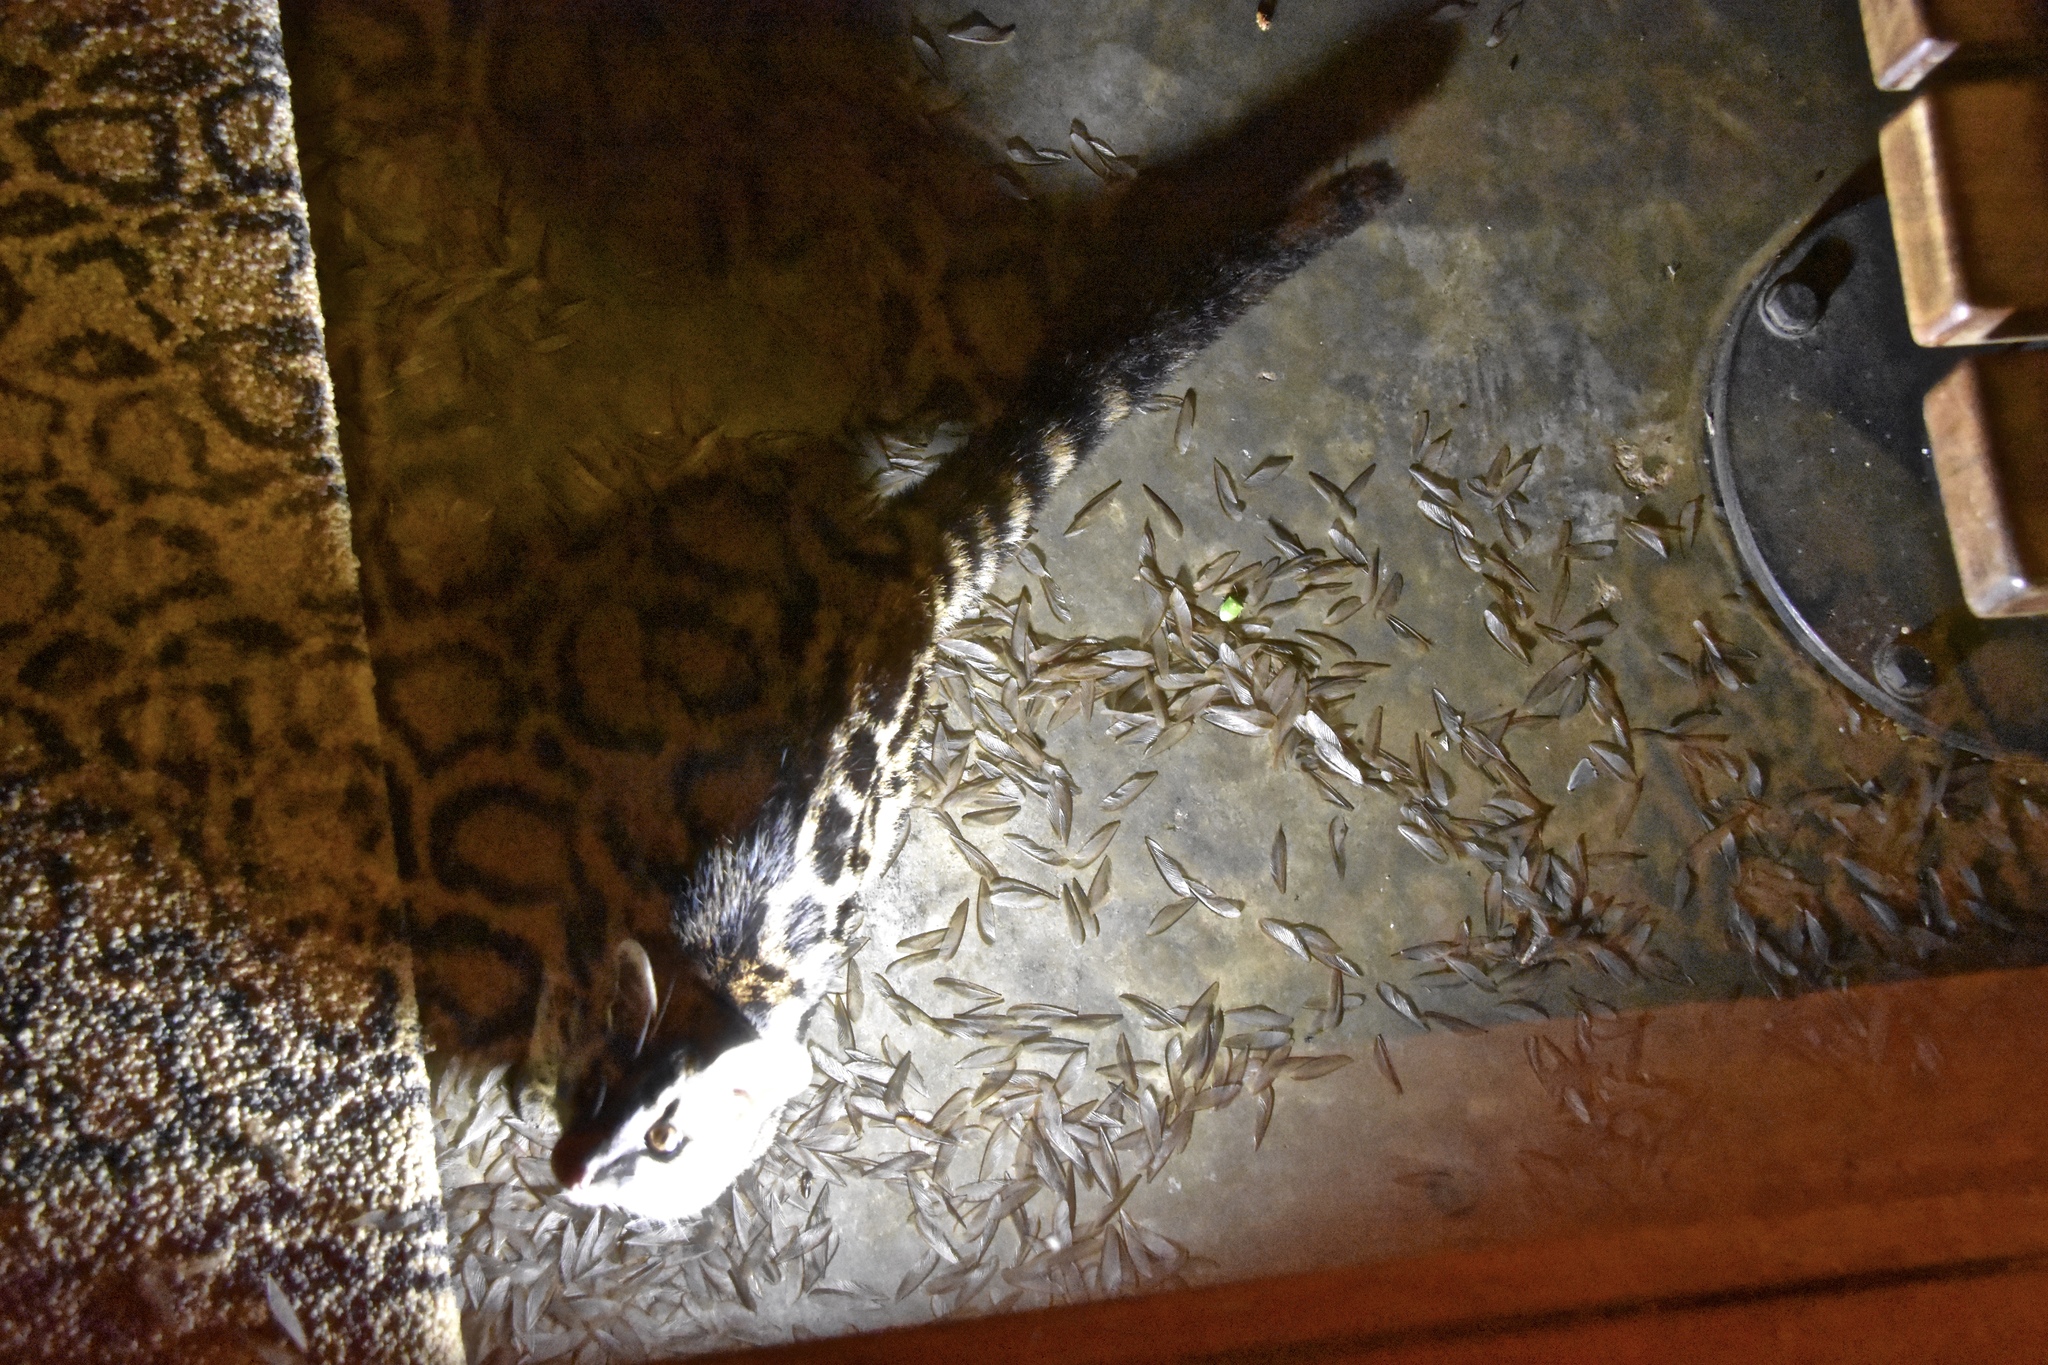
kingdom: Animalia
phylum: Chordata
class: Mammalia
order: Carnivora
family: Viverridae
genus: Genetta
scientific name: Genetta maculata
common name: Rusty-spotted genet
